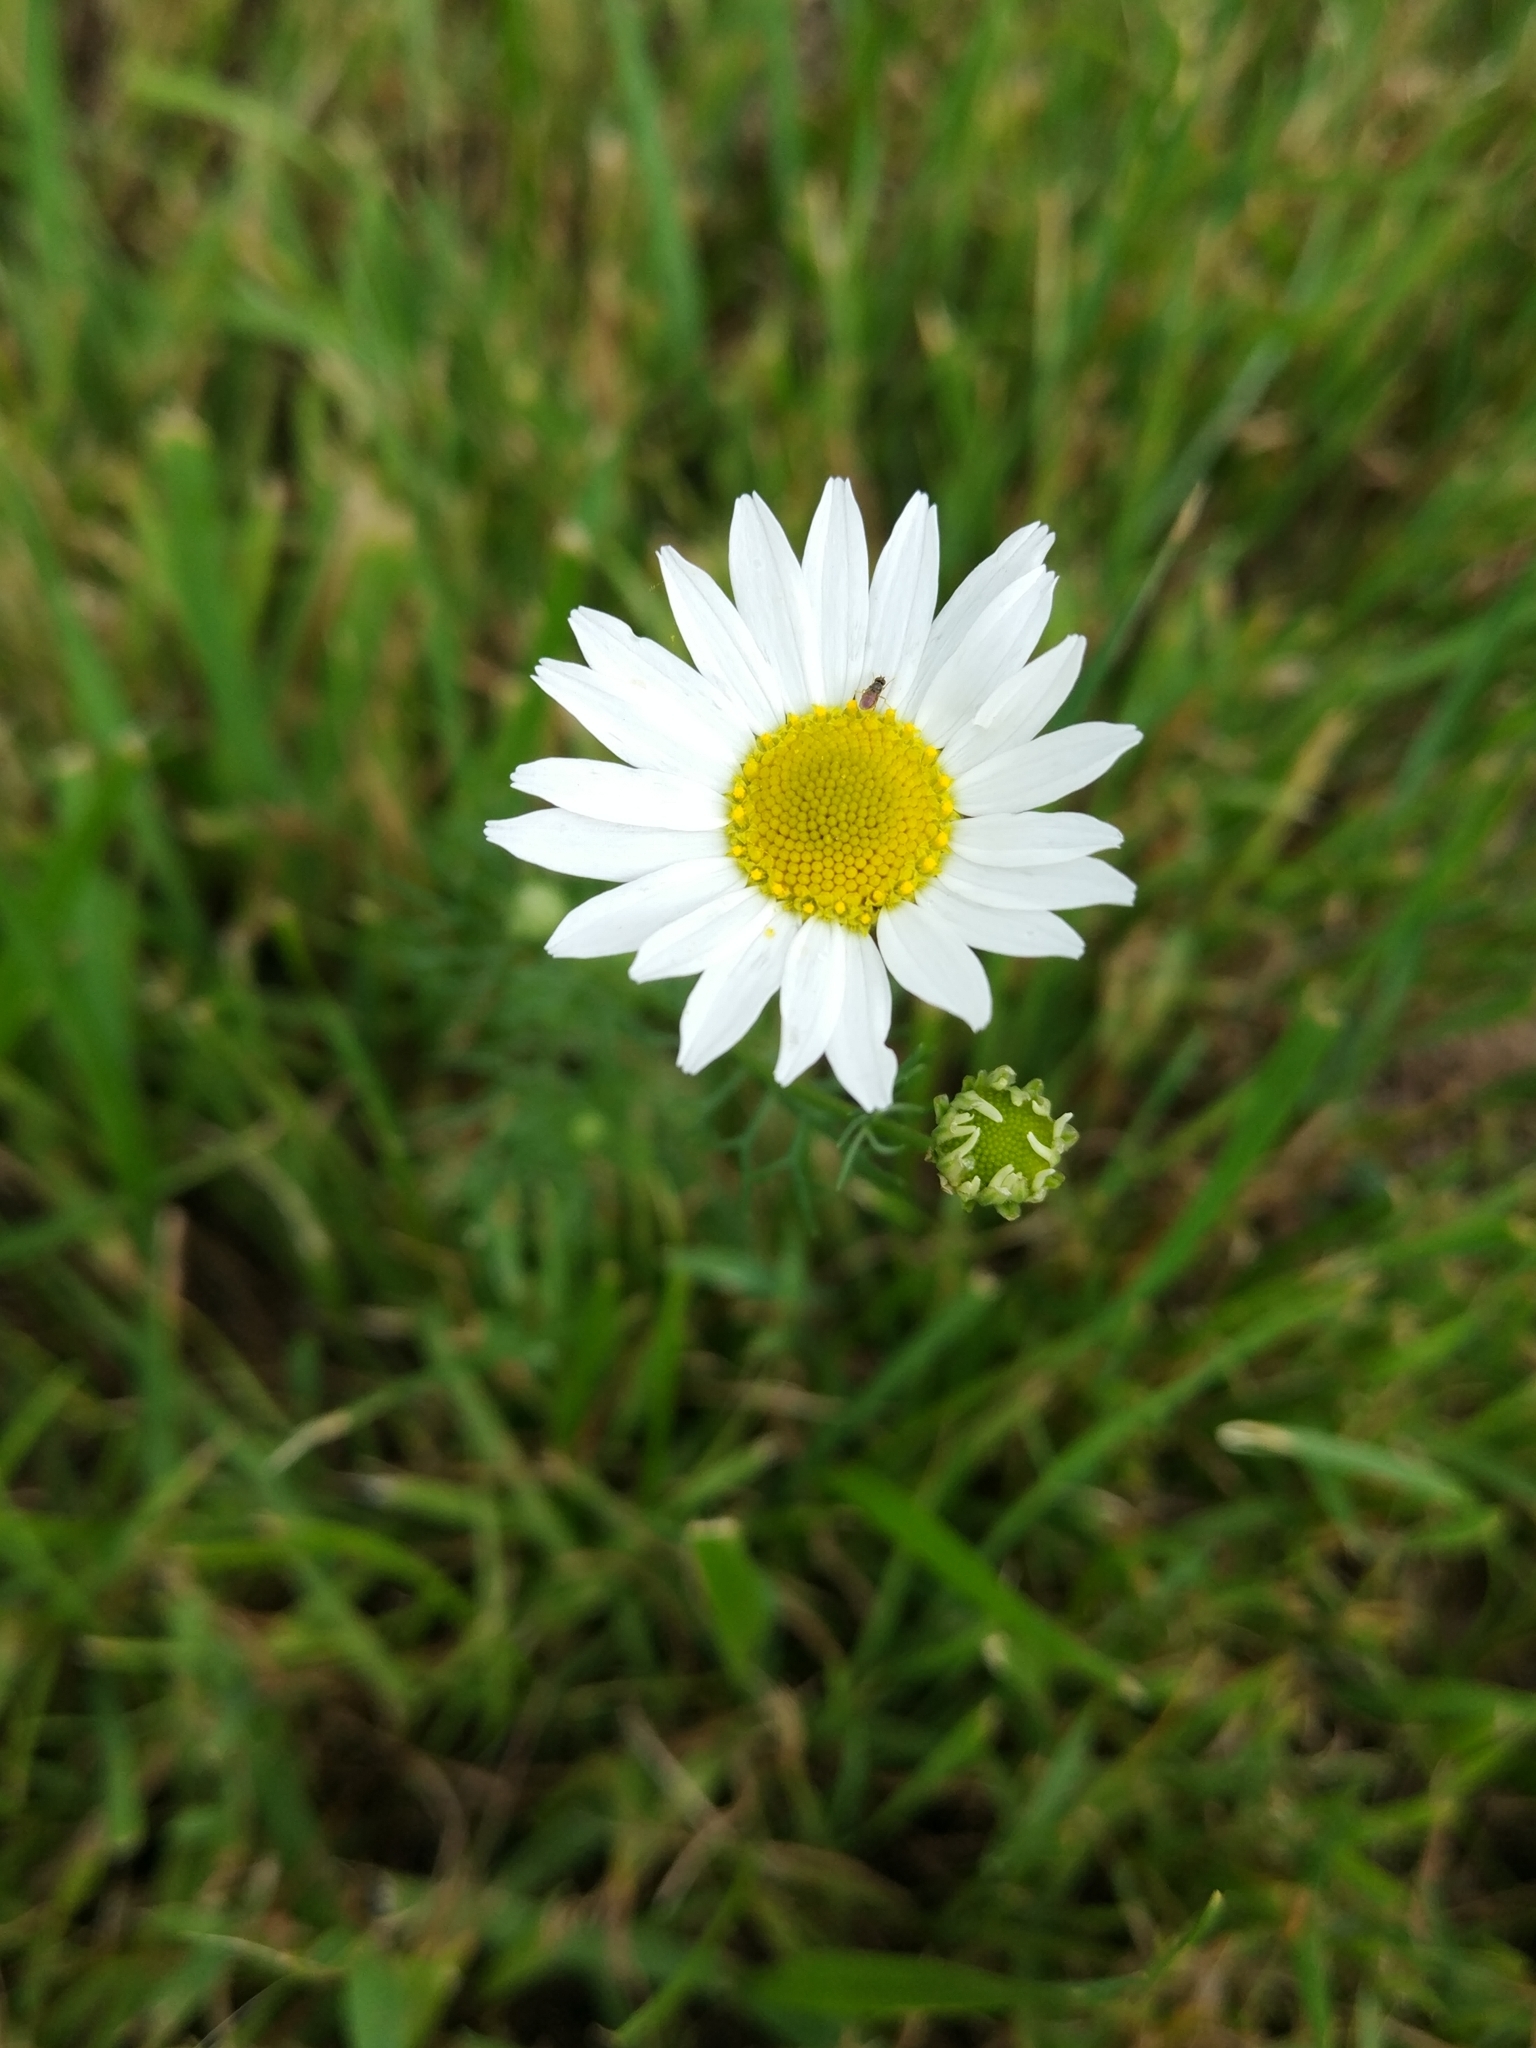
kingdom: Plantae
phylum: Tracheophyta
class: Magnoliopsida
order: Asterales
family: Asteraceae
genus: Tripleurospermum
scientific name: Tripleurospermum inodorum
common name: Scentless mayweed
